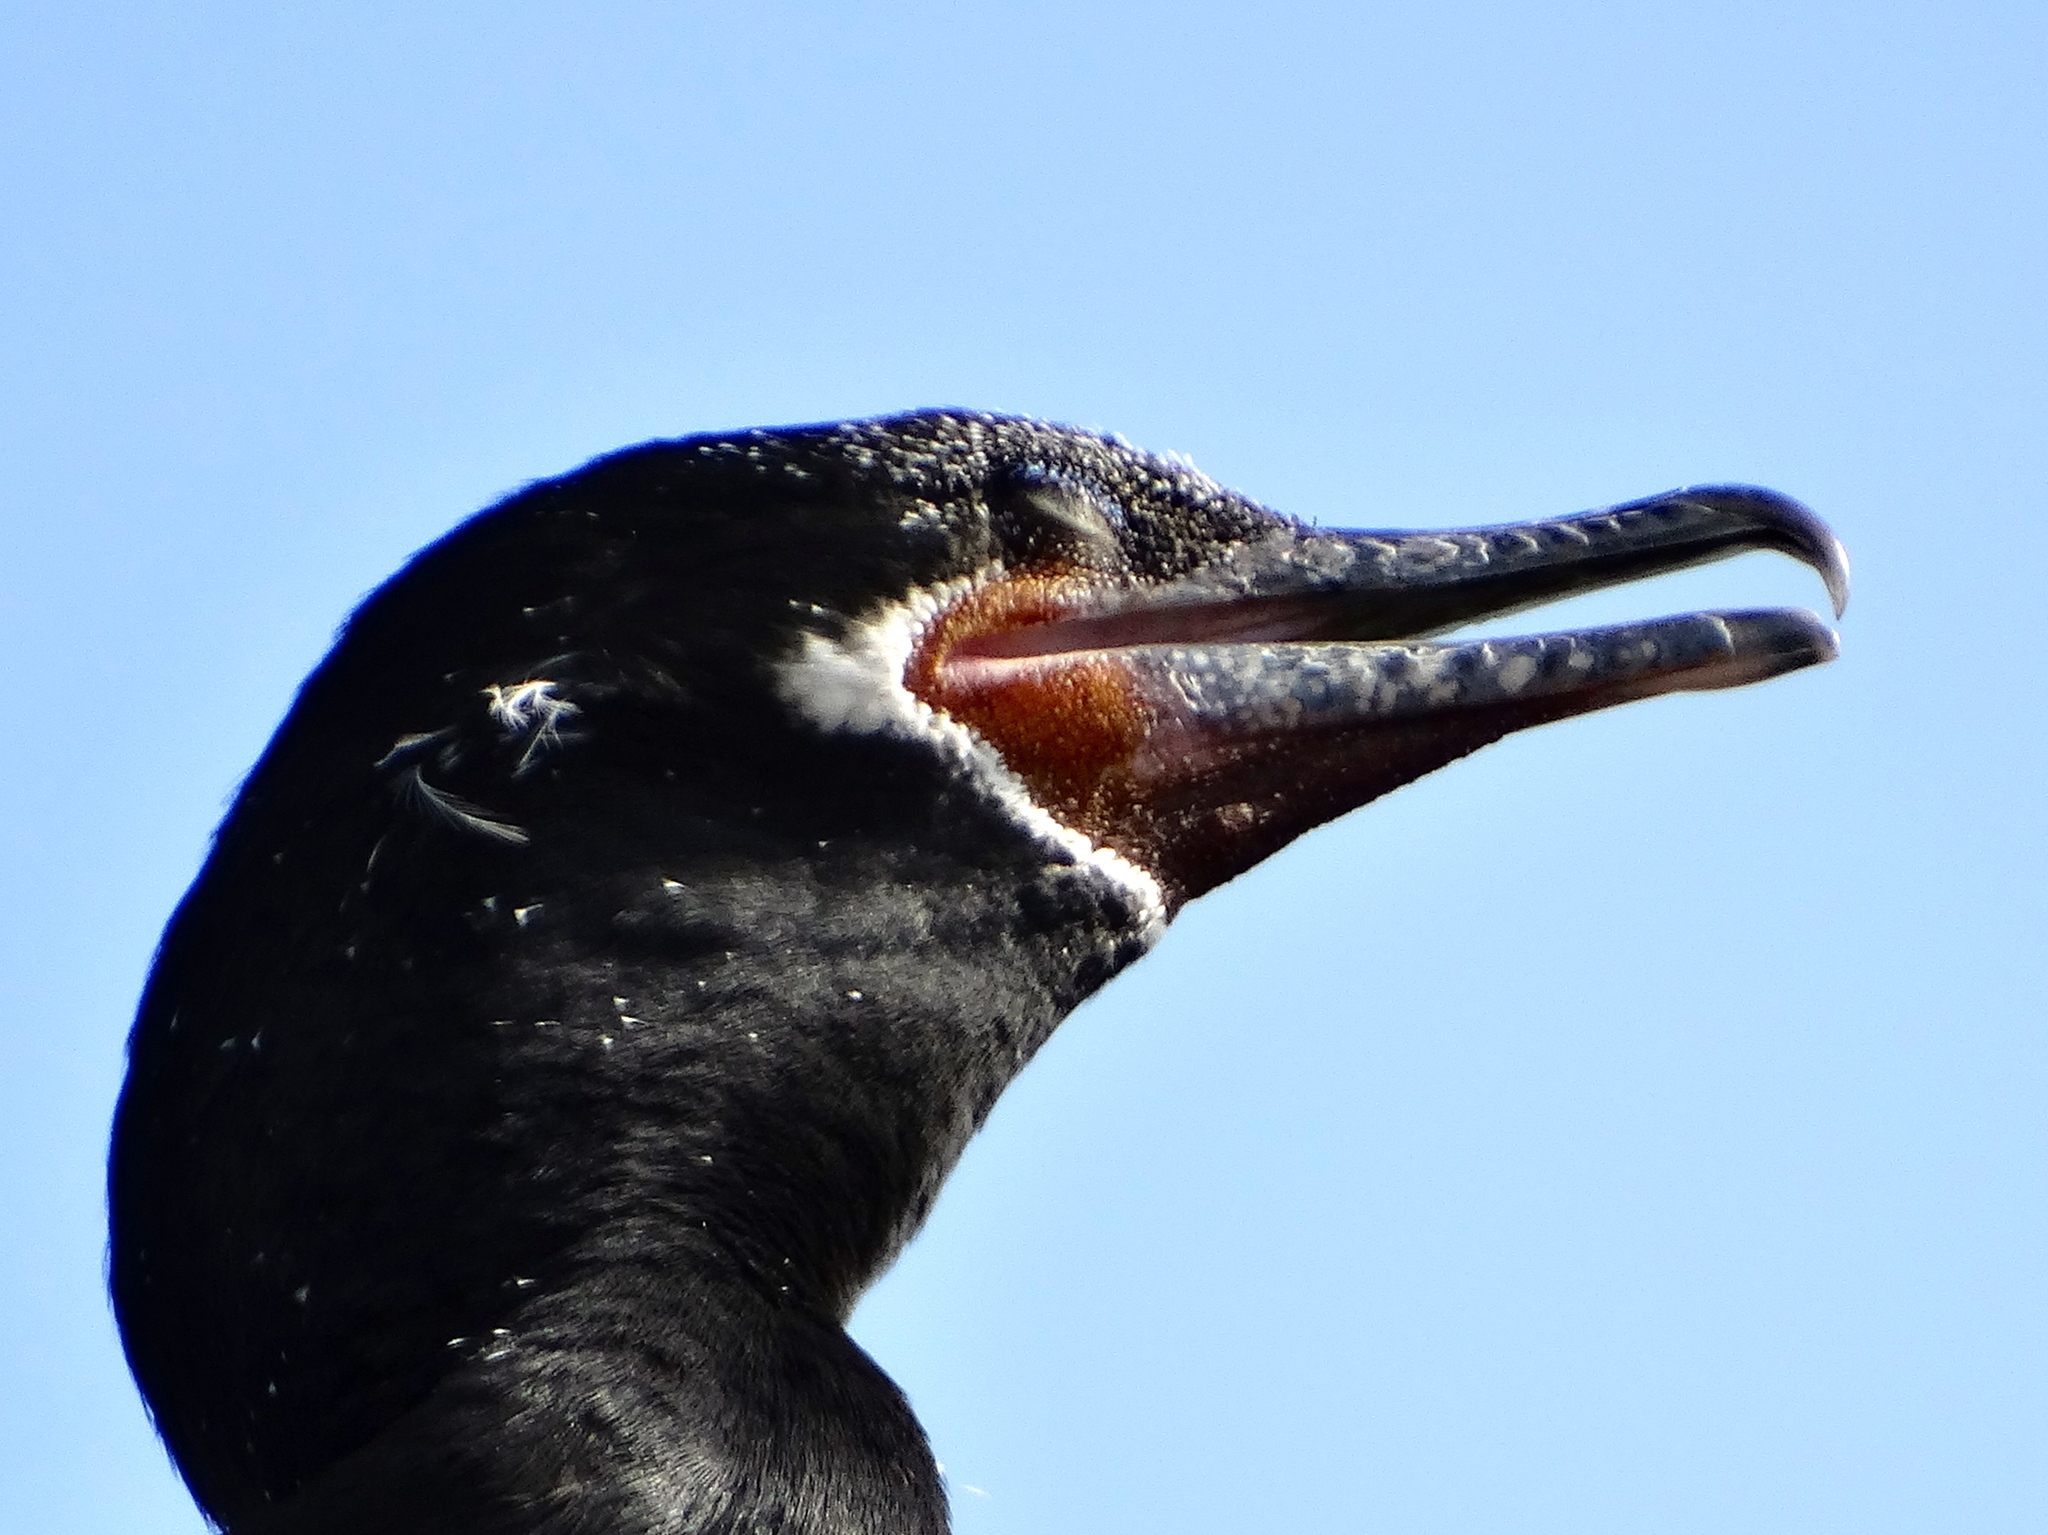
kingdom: Animalia
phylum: Chordata
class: Aves
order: Suliformes
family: Phalacrocoracidae
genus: Phalacrocorax
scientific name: Phalacrocorax brasilianus
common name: Neotropic cormorant
